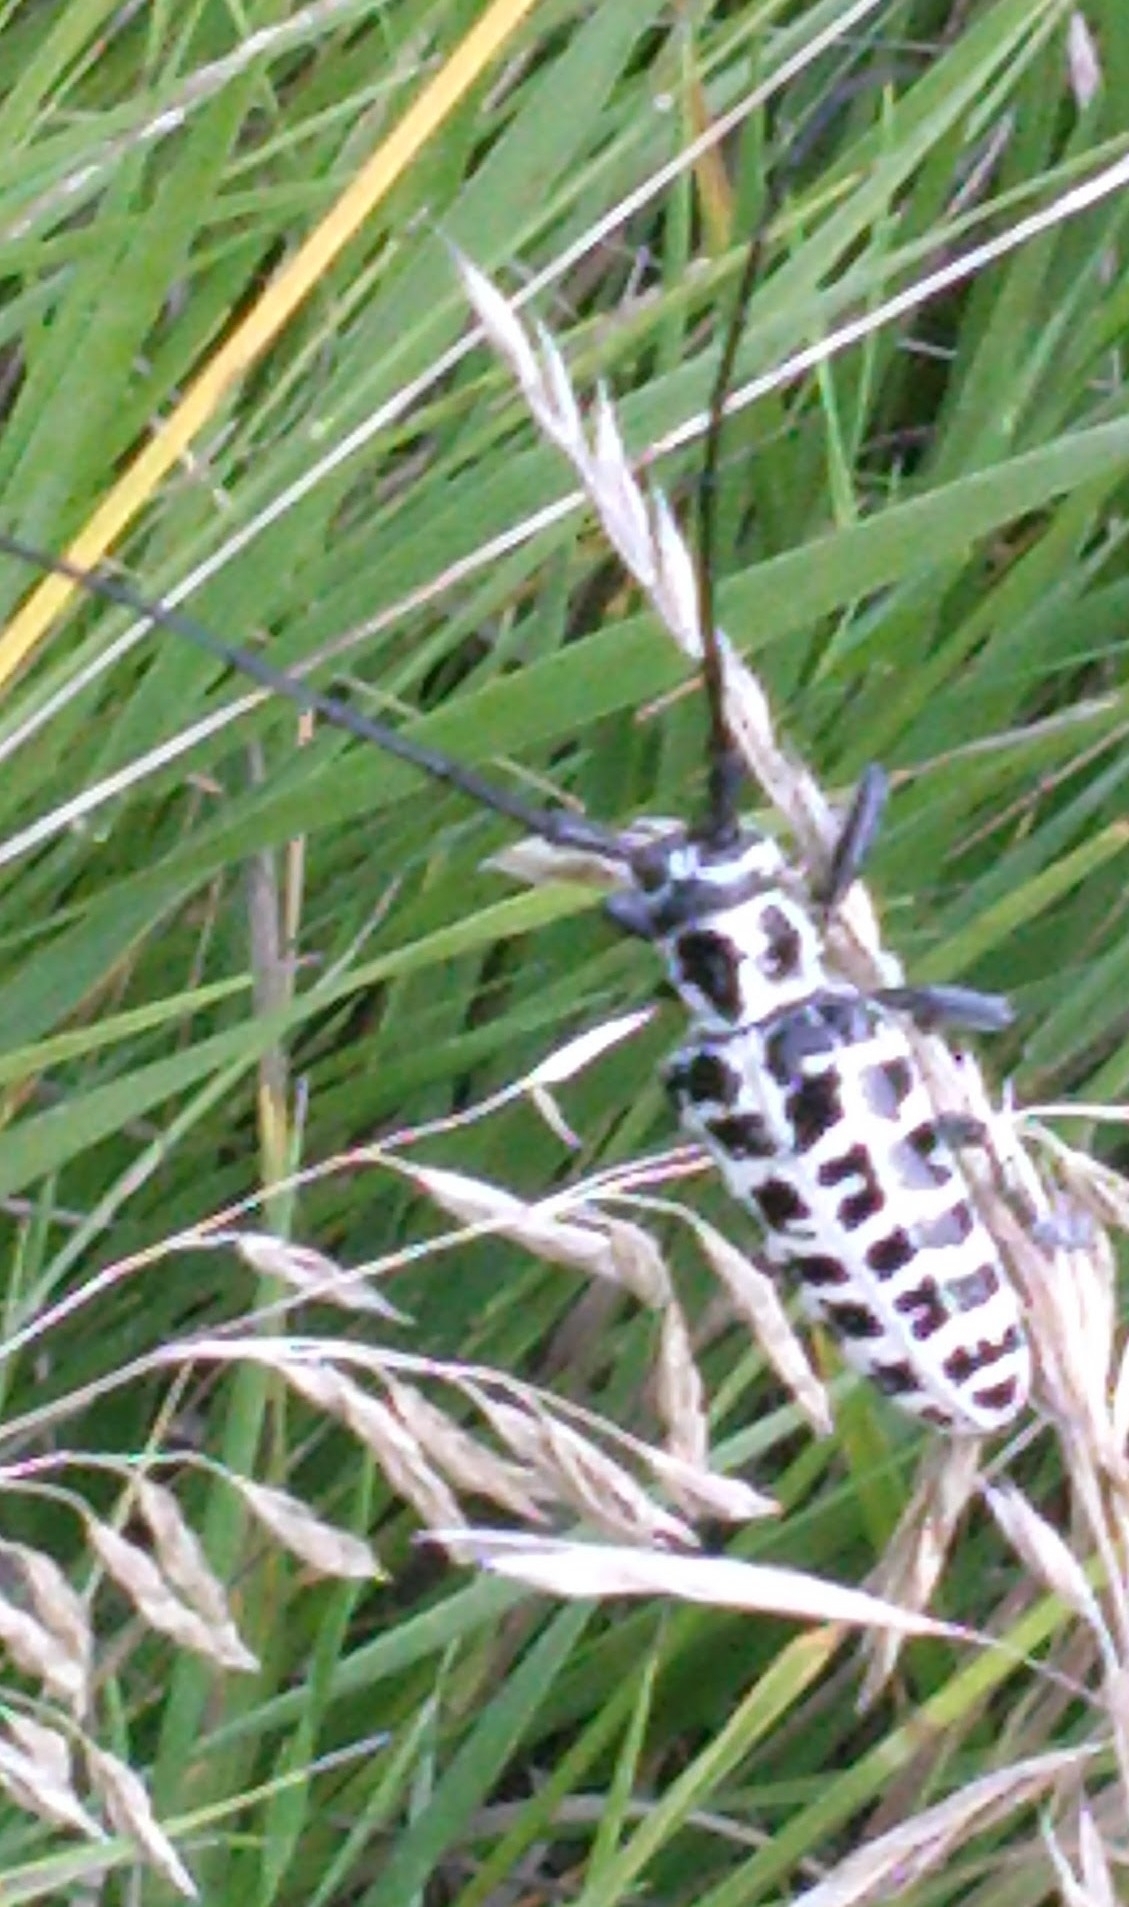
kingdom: Animalia
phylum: Arthropoda
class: Insecta
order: Coleoptera
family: Cerambycidae
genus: Plectrodera
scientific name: Plectrodera scalator
